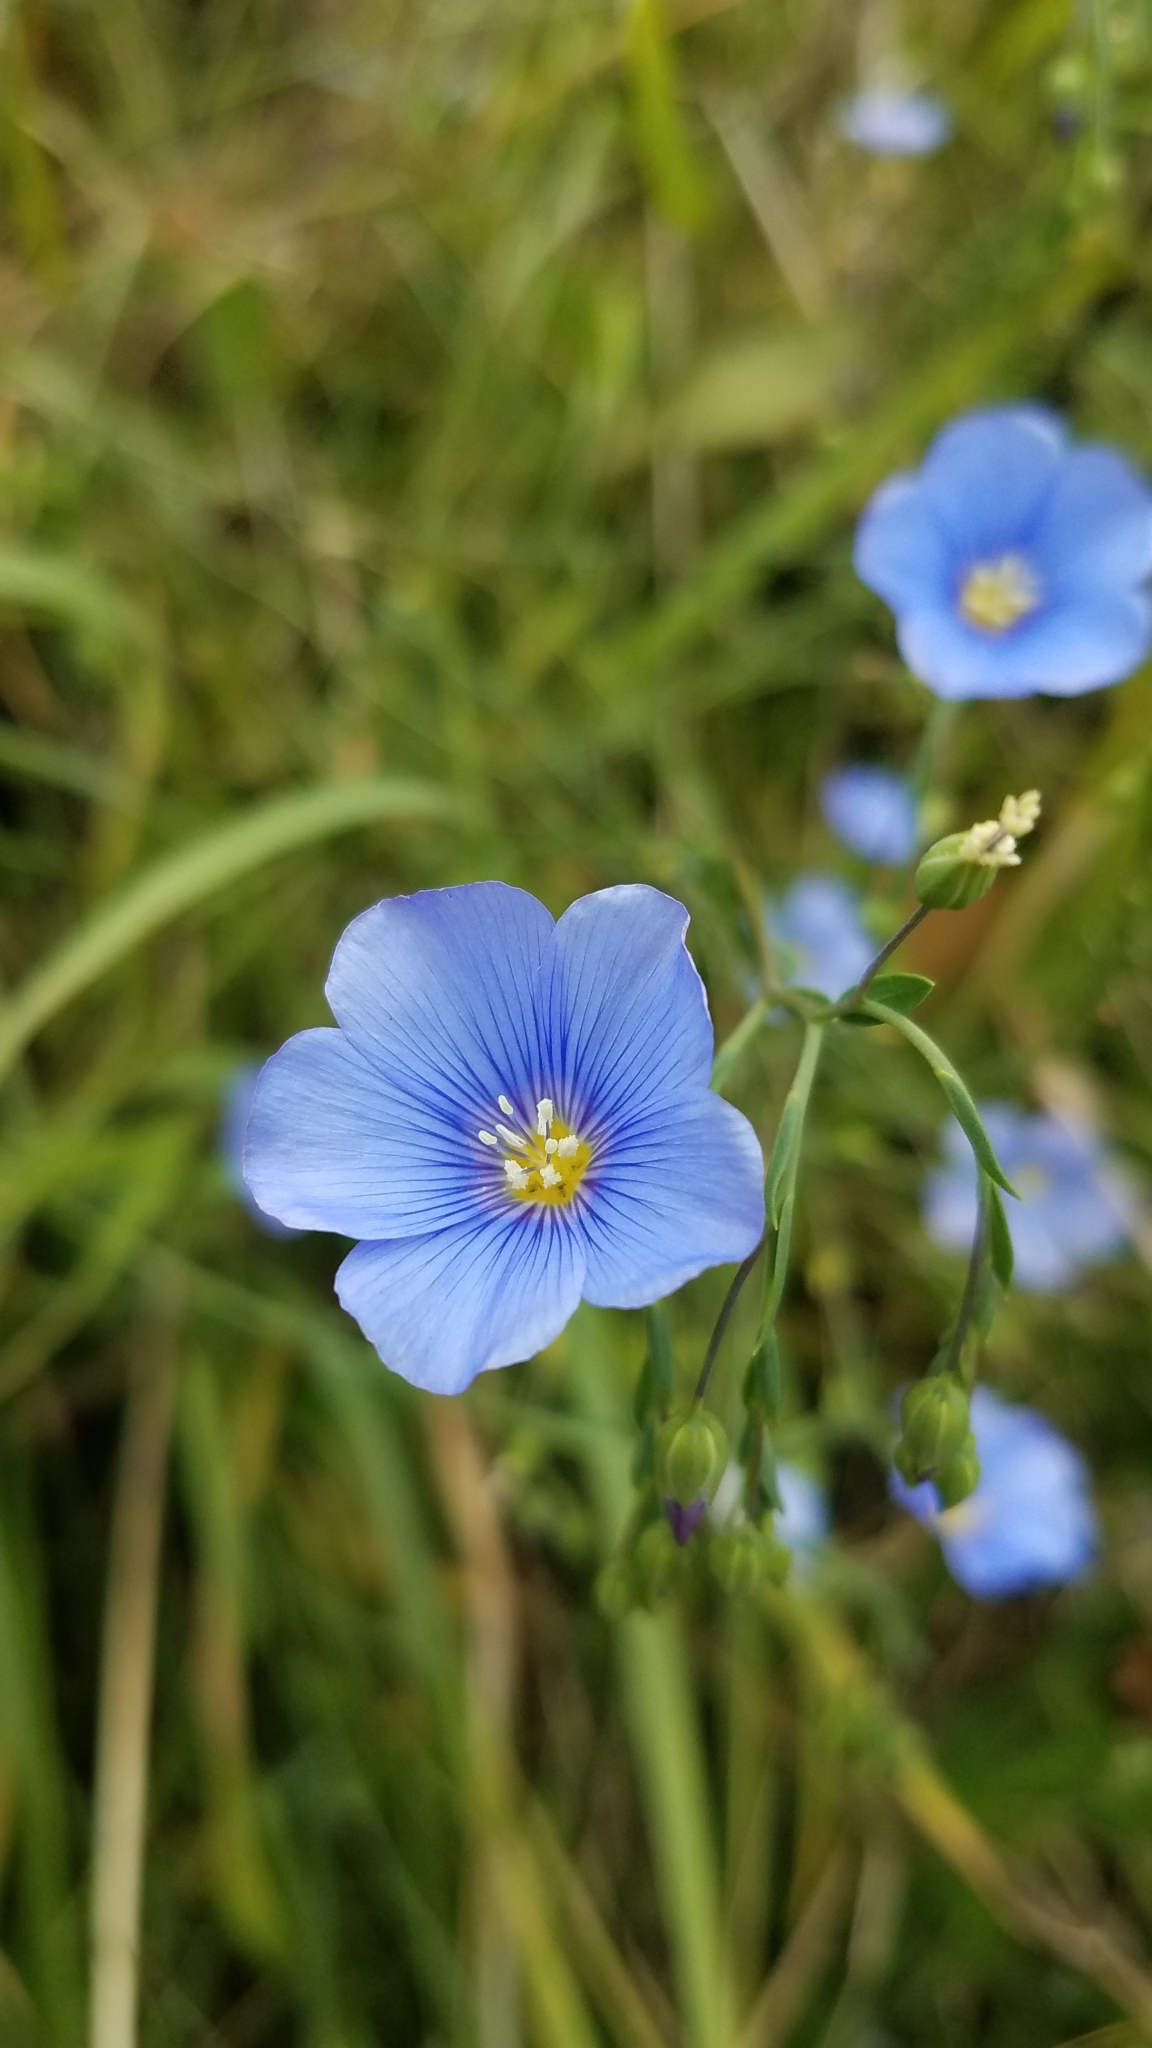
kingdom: Plantae
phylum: Tracheophyta
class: Magnoliopsida
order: Malpighiales
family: Linaceae
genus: Linum
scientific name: Linum lewisii
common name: Prairie flax
